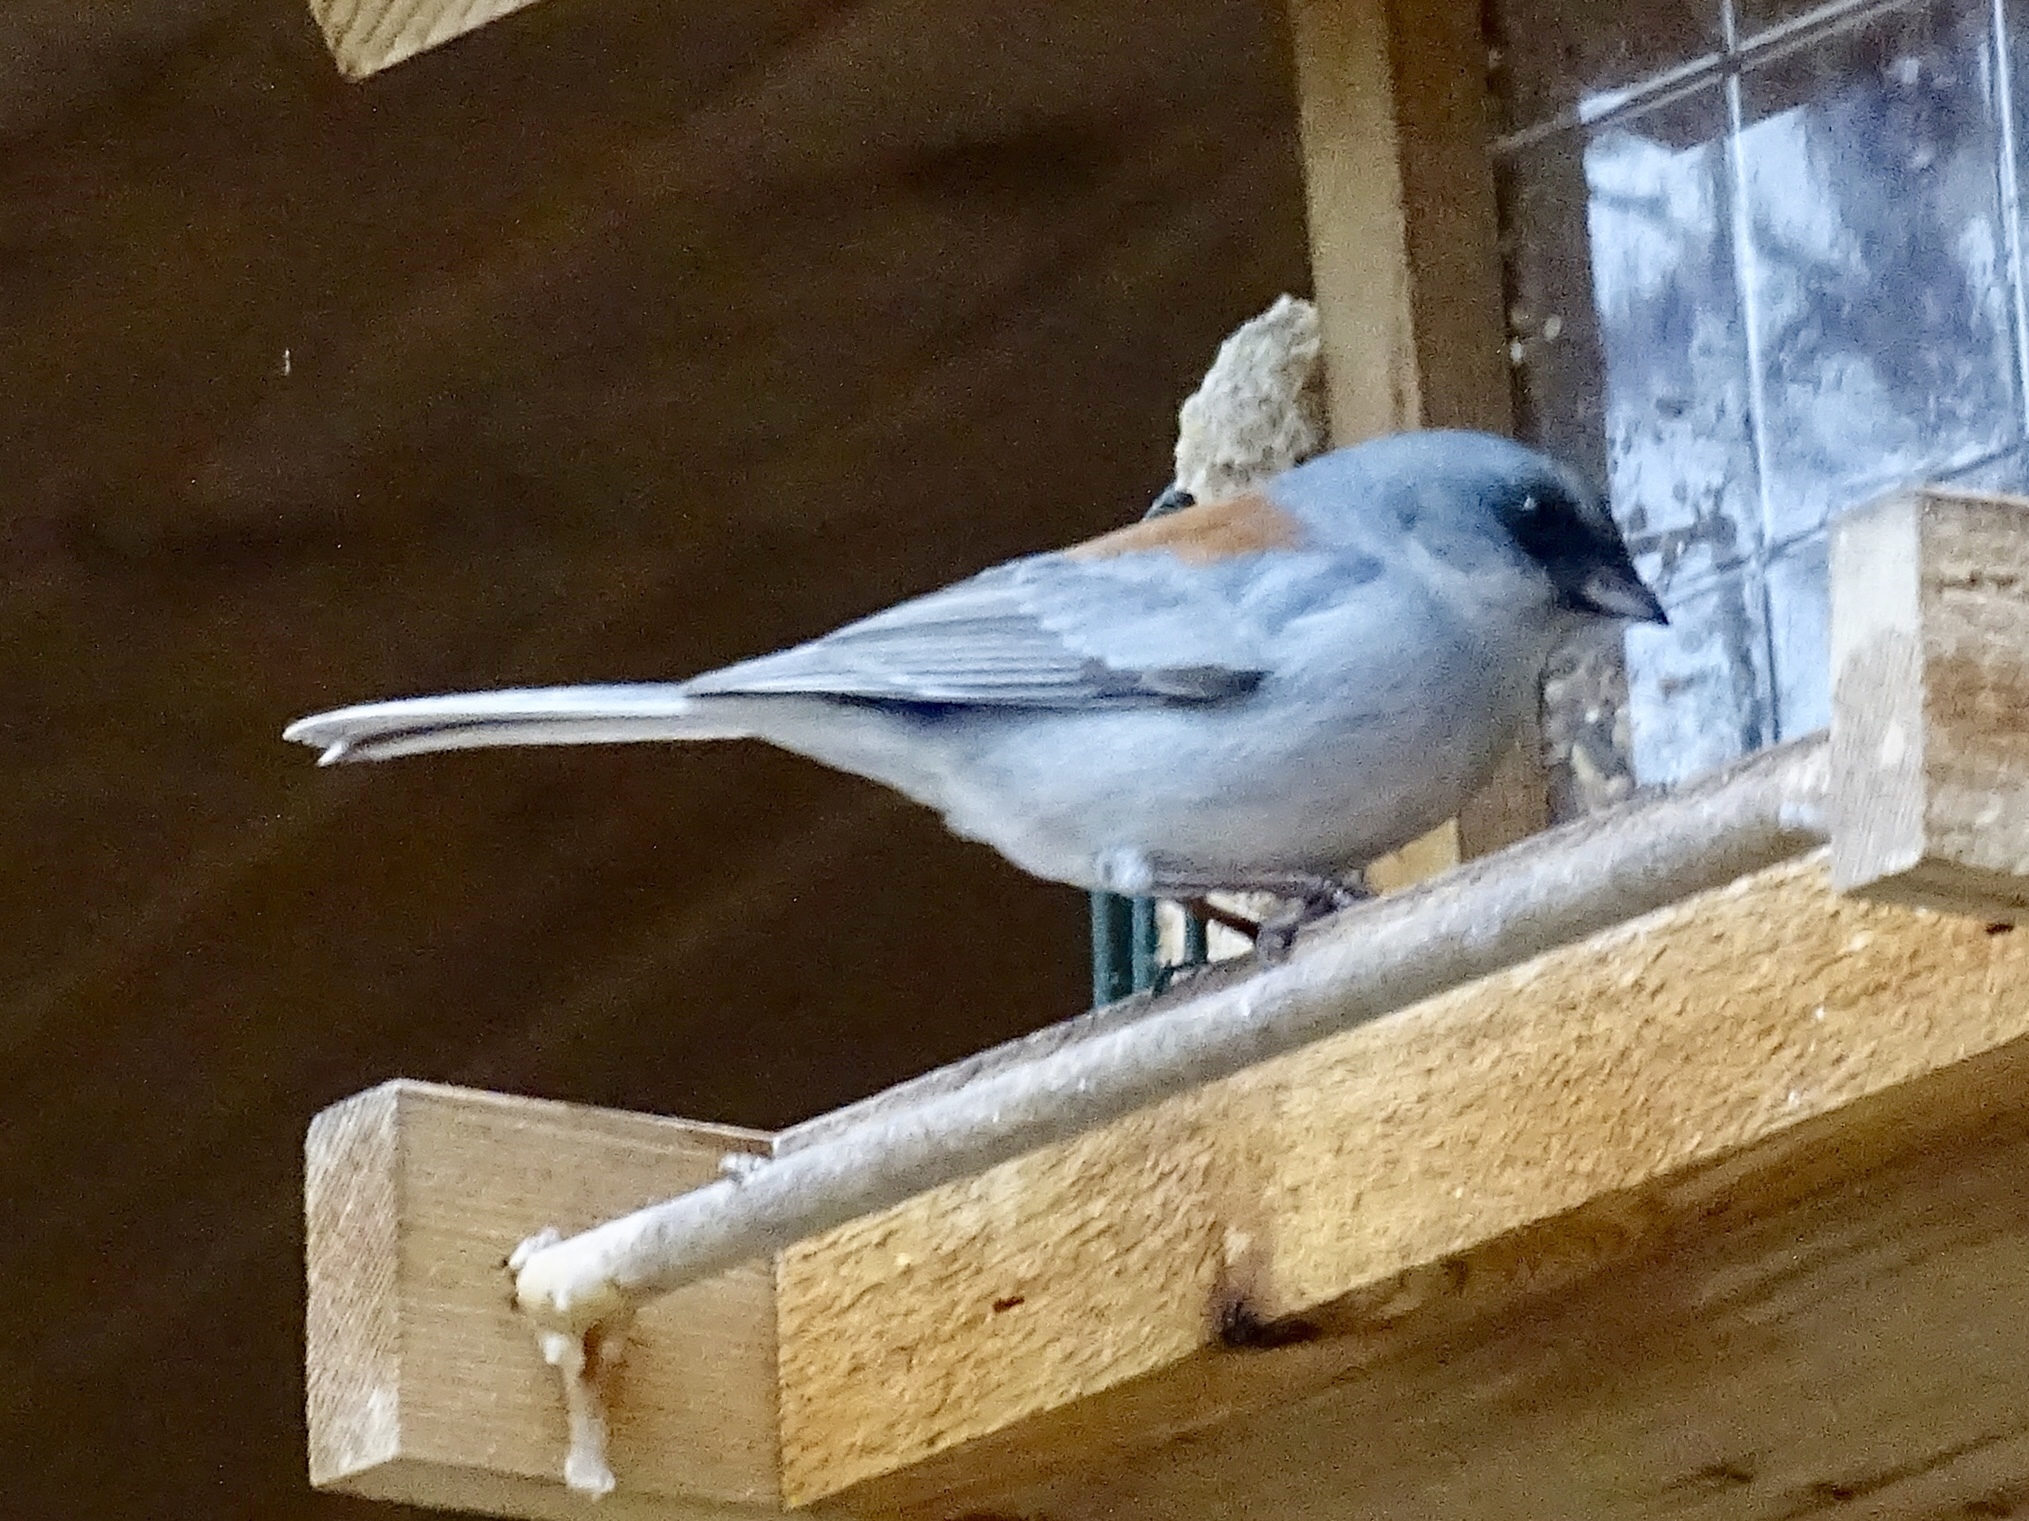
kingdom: Animalia
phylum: Chordata
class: Aves
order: Passeriformes
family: Passerellidae
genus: Junco
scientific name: Junco hyemalis
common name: Dark-eyed junco
